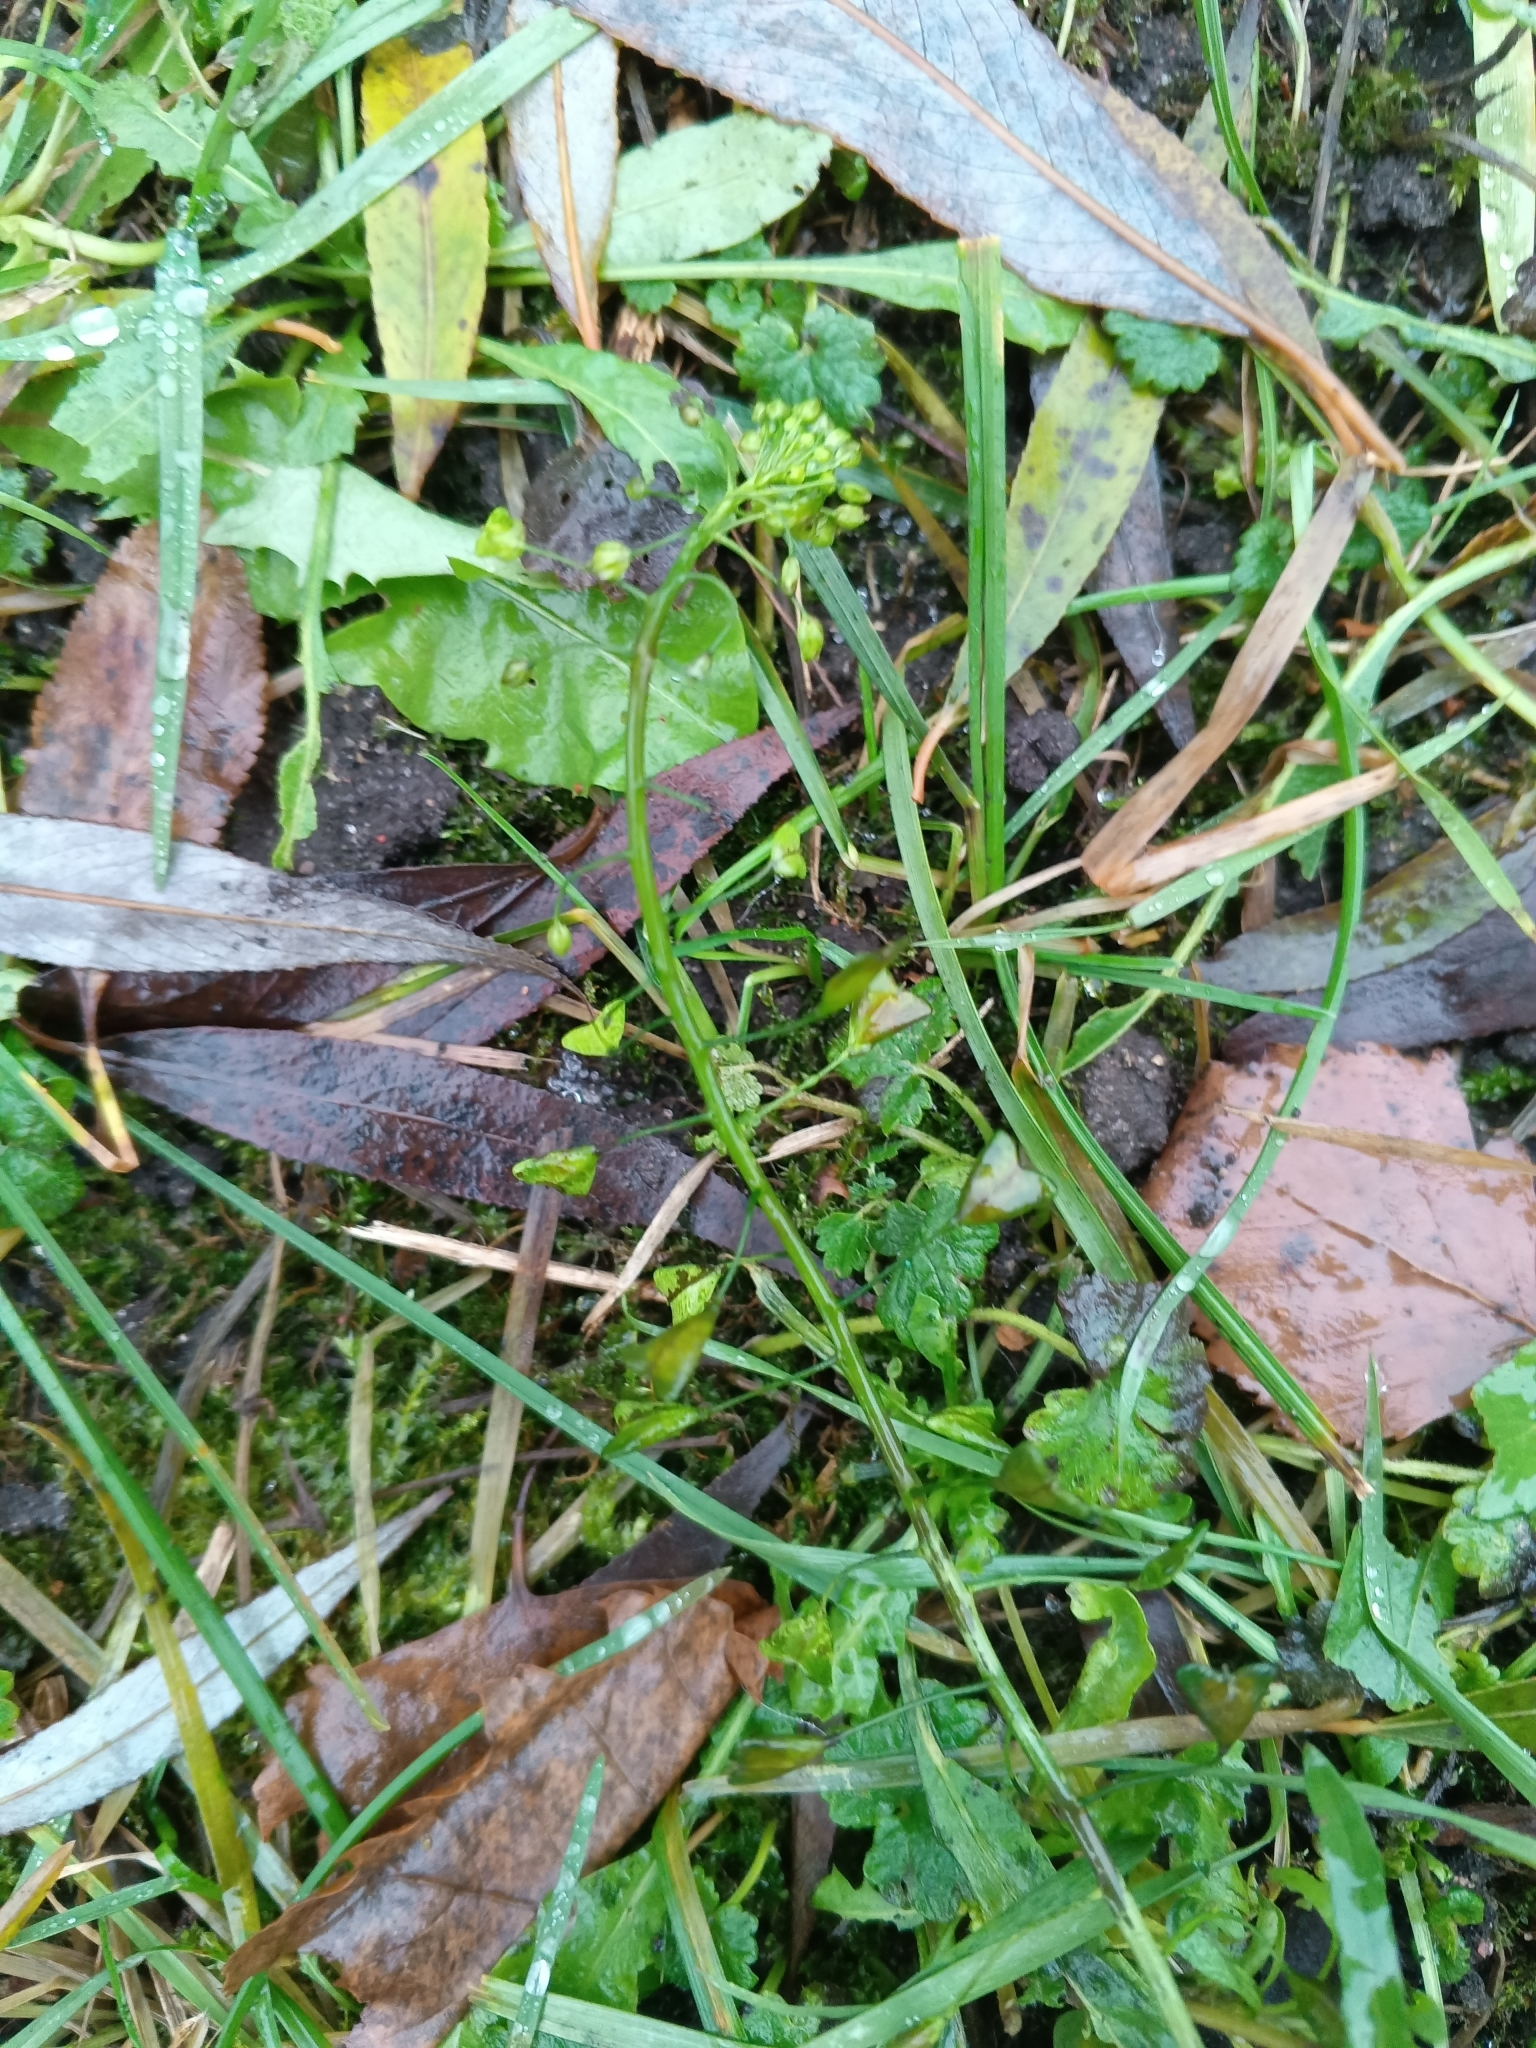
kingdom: Plantae
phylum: Tracheophyta
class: Magnoliopsida
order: Brassicales
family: Brassicaceae
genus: Capsella
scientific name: Capsella bursa-pastoris
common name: Shepherd's purse
